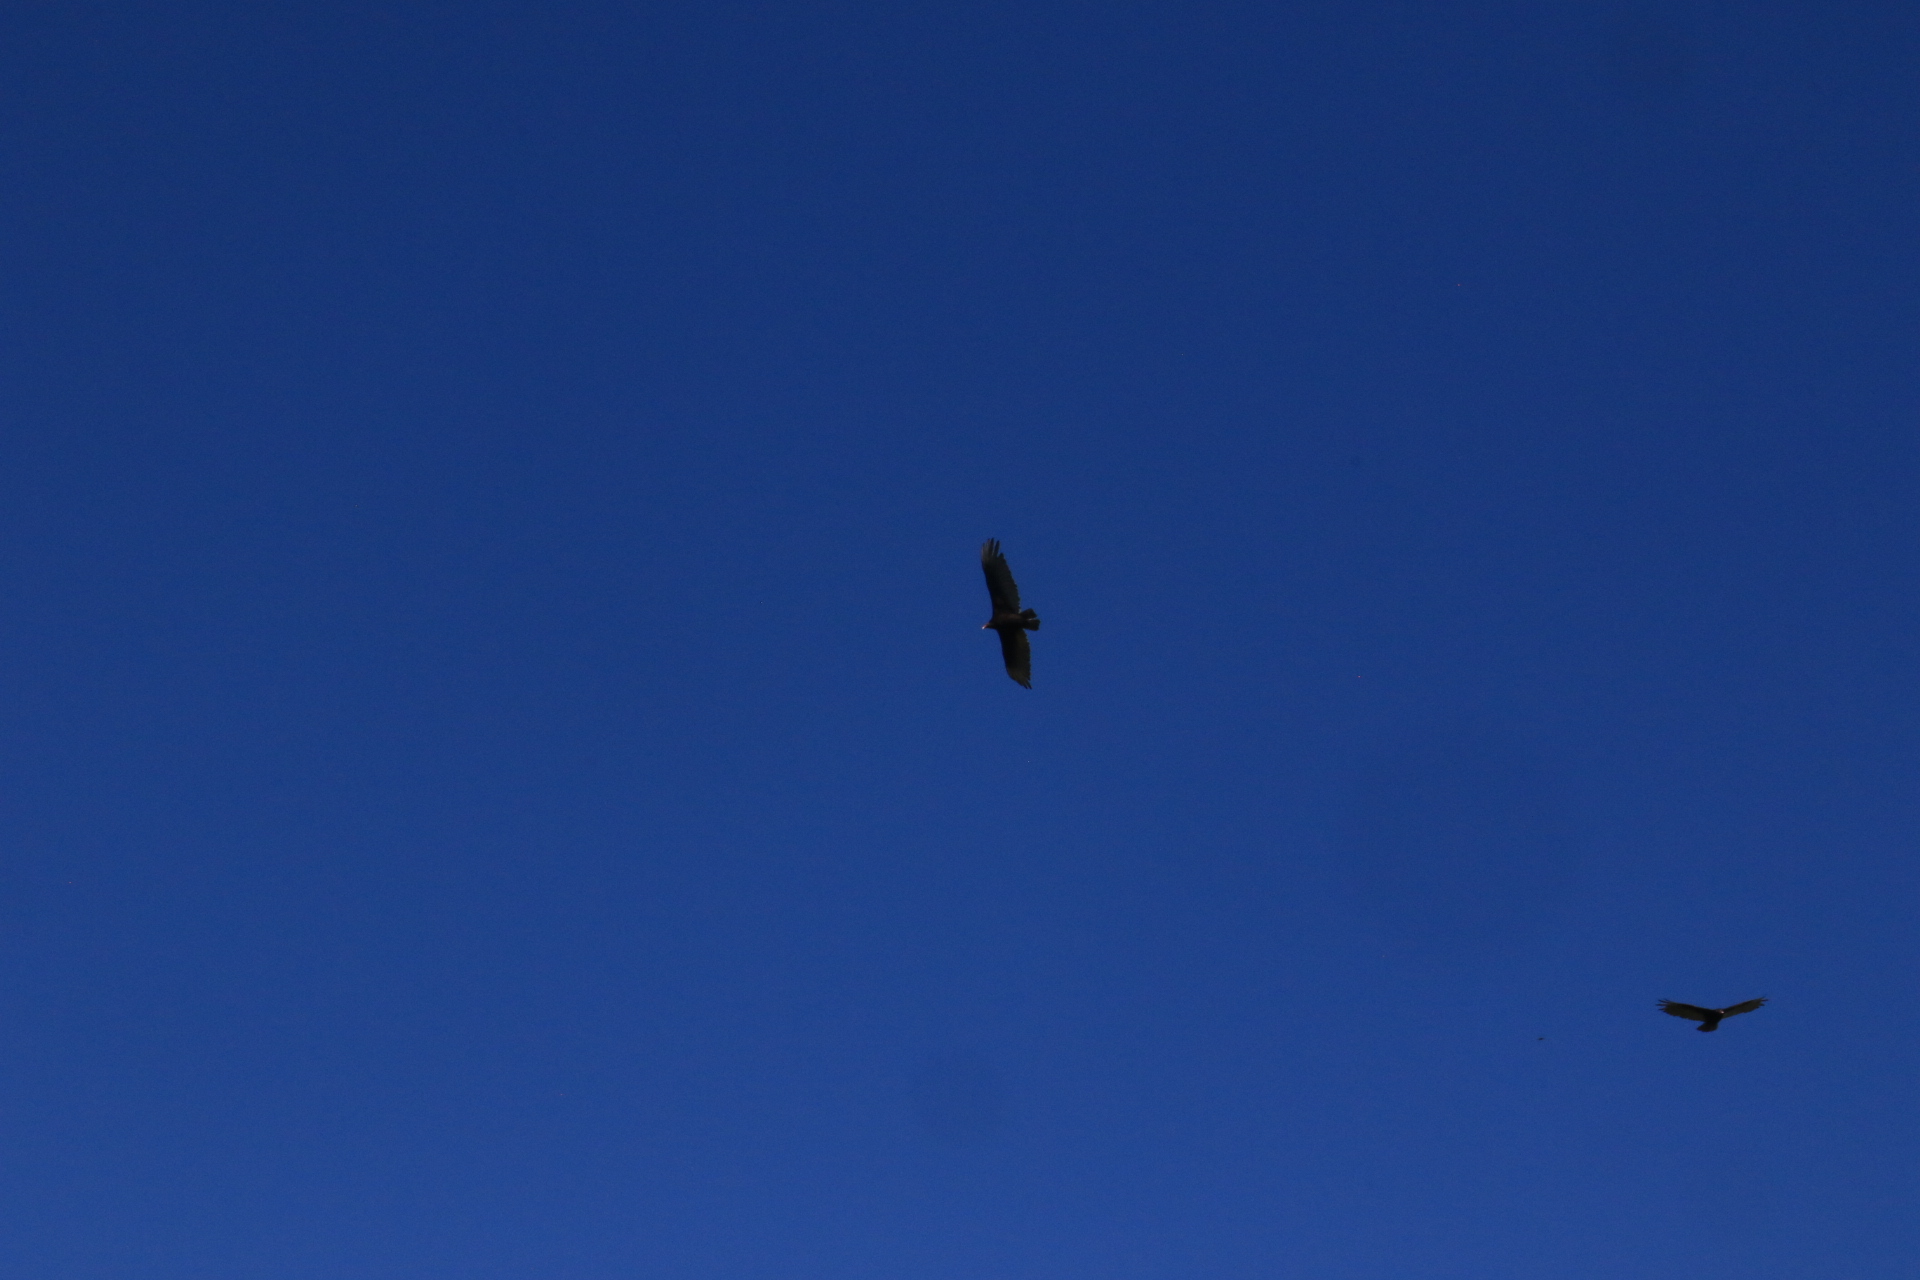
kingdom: Animalia
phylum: Chordata
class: Aves
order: Accipitriformes
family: Cathartidae
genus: Cathartes
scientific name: Cathartes aura
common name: Turkey vulture
